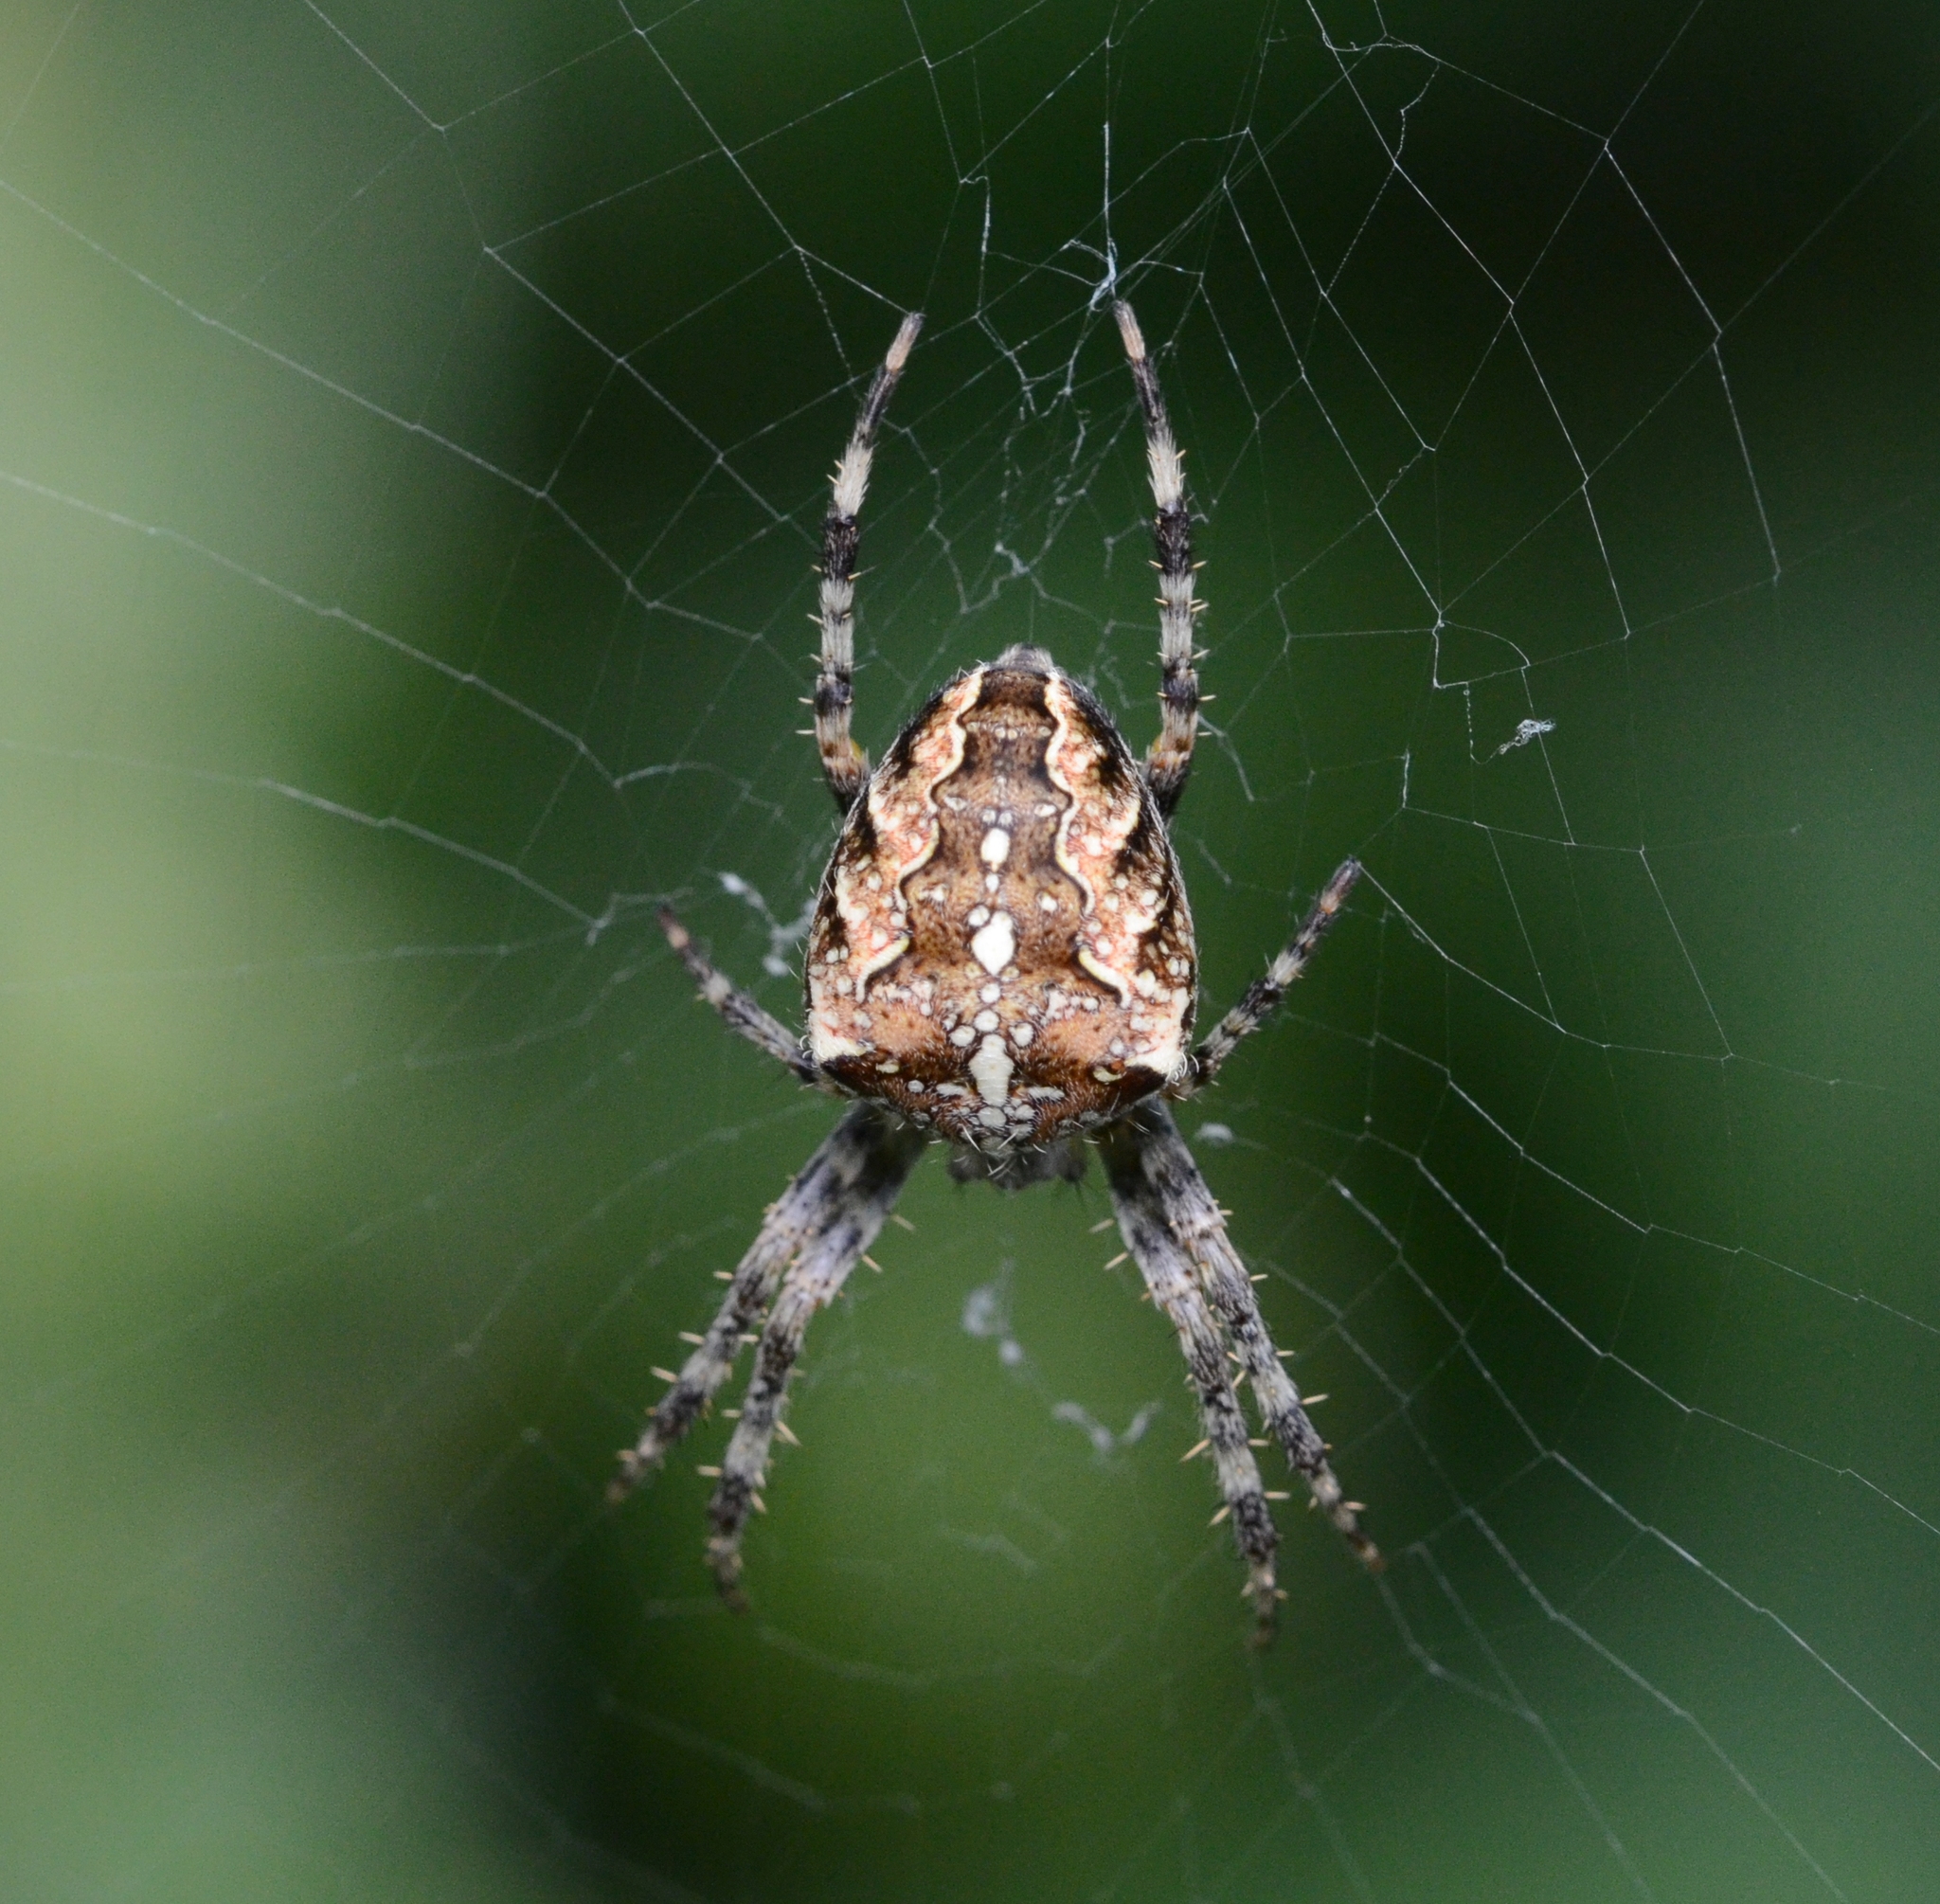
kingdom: Animalia
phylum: Arthropoda
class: Arachnida
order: Araneae
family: Araneidae
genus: Araneus
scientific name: Araneus diadematus
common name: Cross orbweaver
